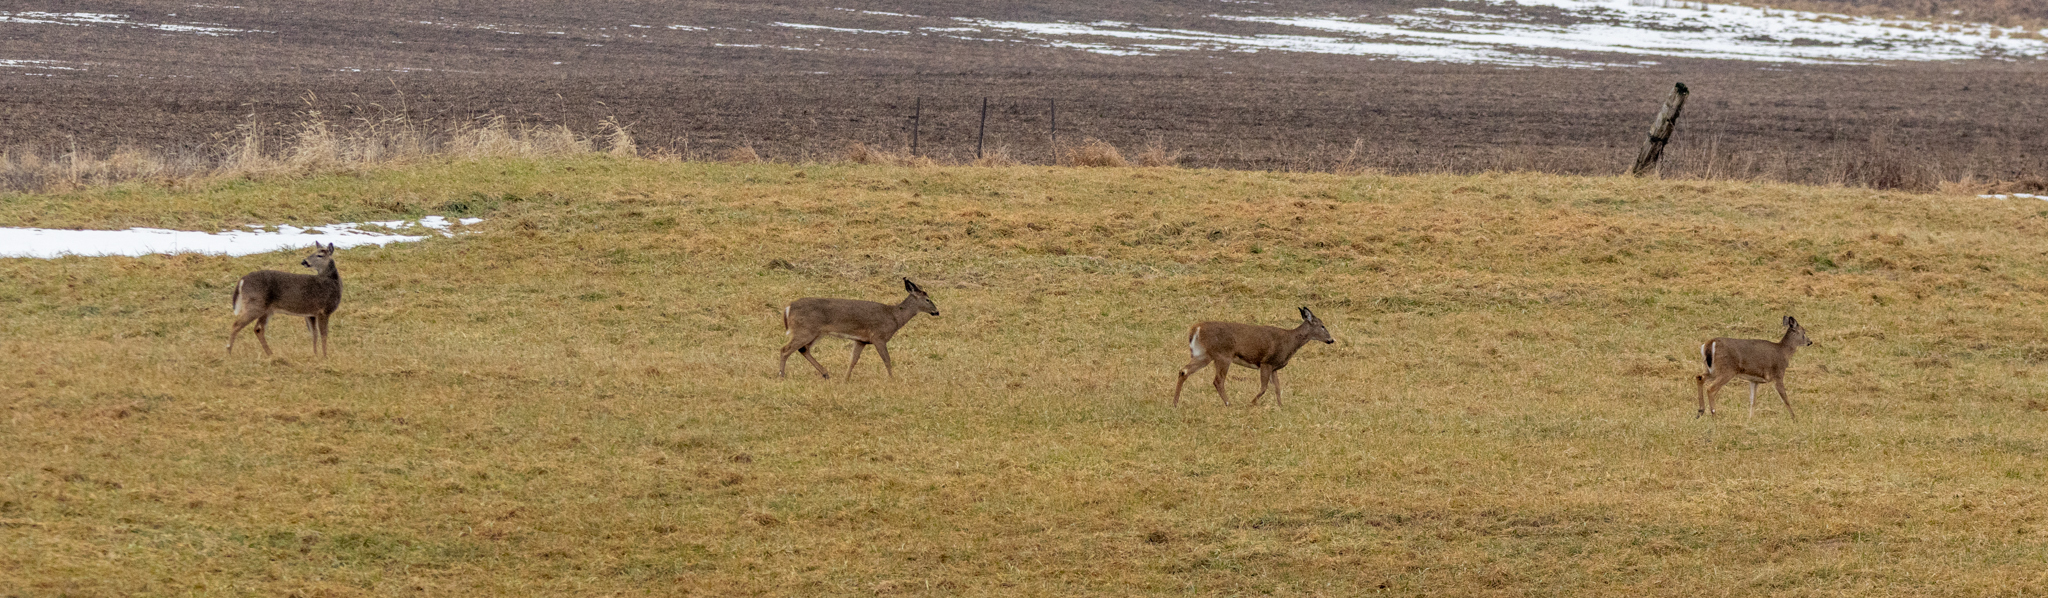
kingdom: Animalia
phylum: Chordata
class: Mammalia
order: Artiodactyla
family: Cervidae
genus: Odocoileus
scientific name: Odocoileus virginianus
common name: White-tailed deer
